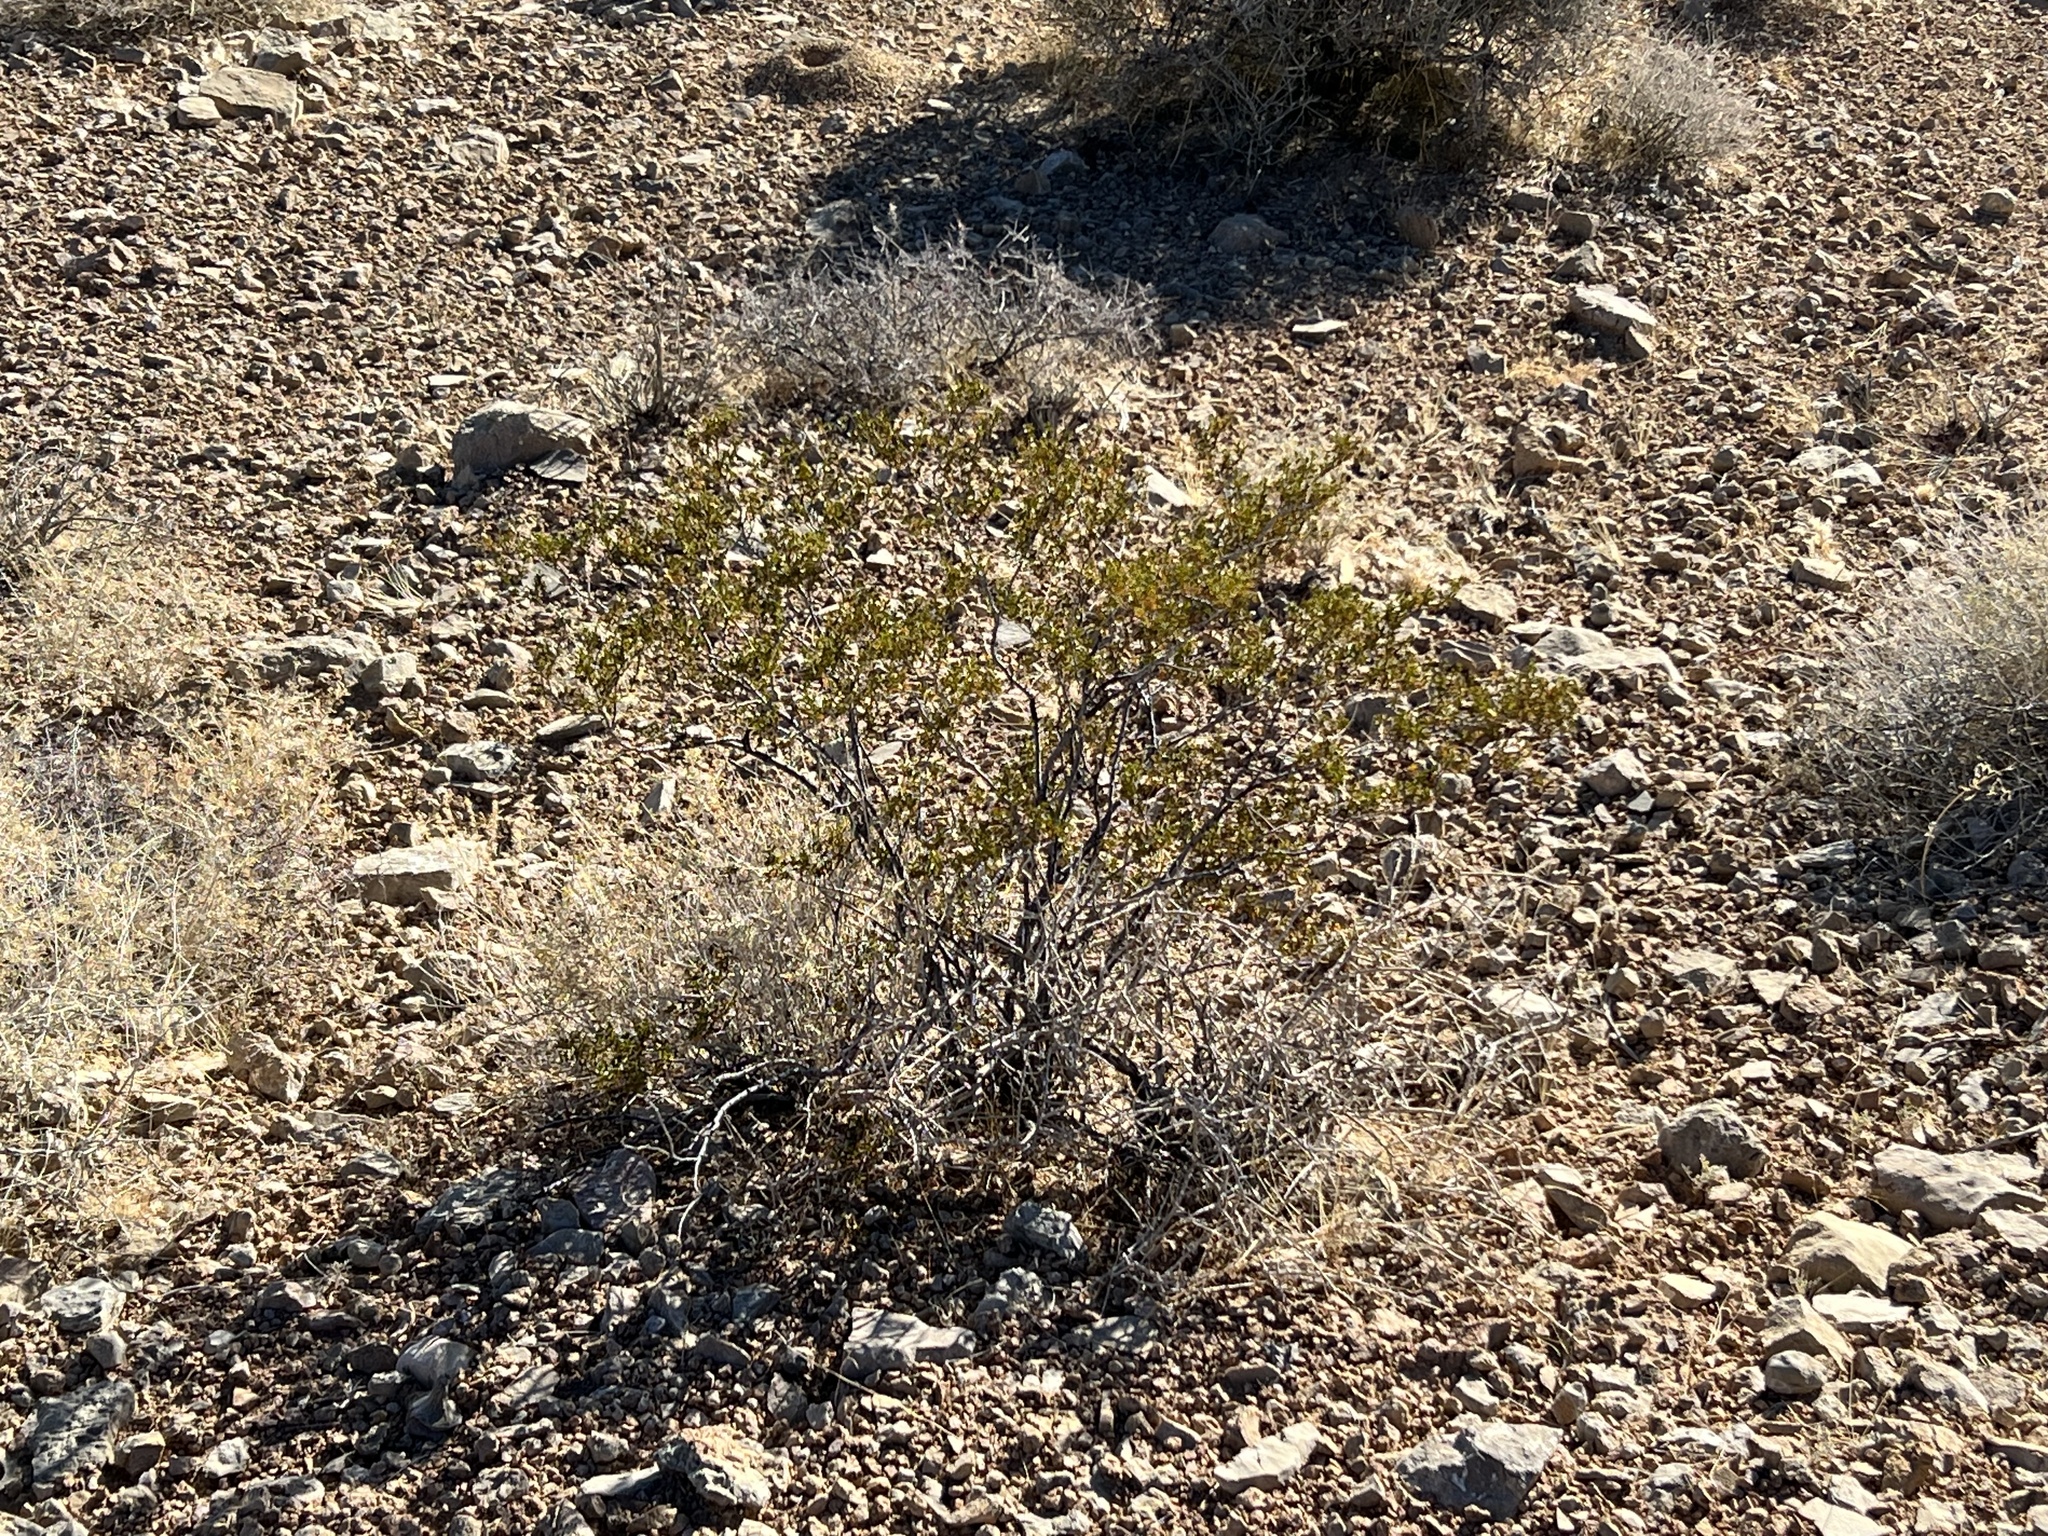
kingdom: Plantae
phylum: Tracheophyta
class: Magnoliopsida
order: Zygophyllales
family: Zygophyllaceae
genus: Larrea
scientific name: Larrea tridentata
